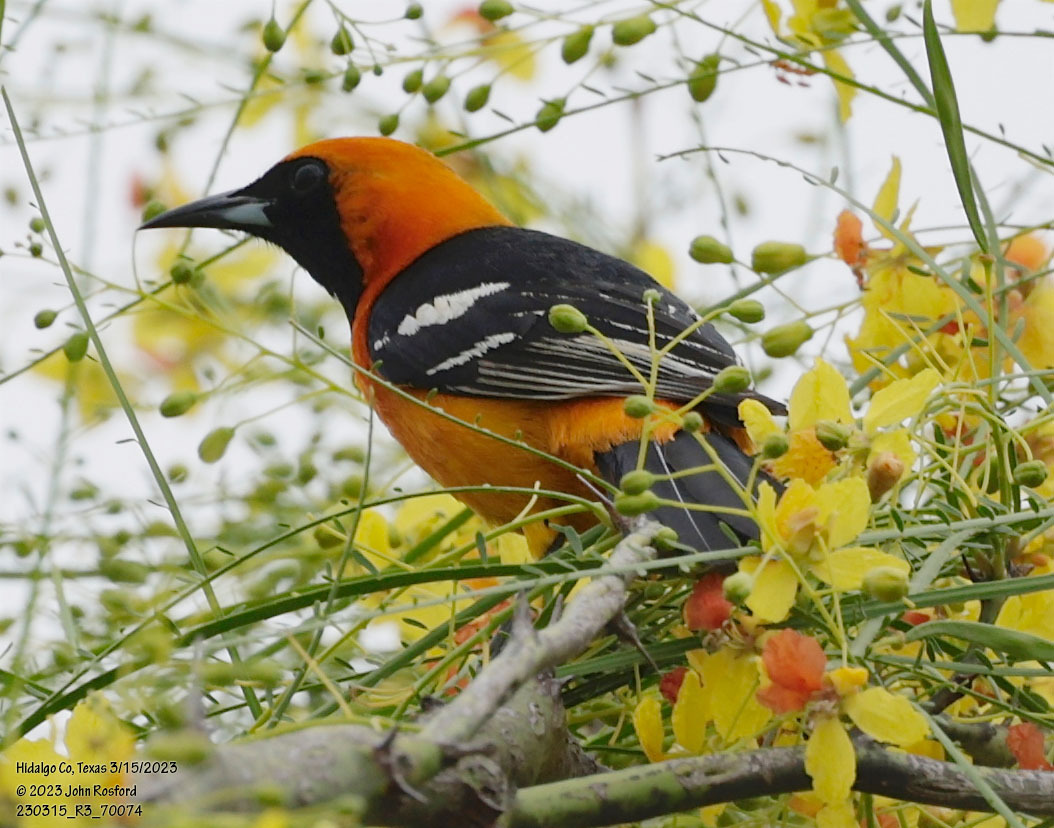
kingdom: Animalia
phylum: Chordata
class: Aves
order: Passeriformes
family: Icteridae
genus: Icterus
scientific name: Icterus cucullatus
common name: Hooded oriole
